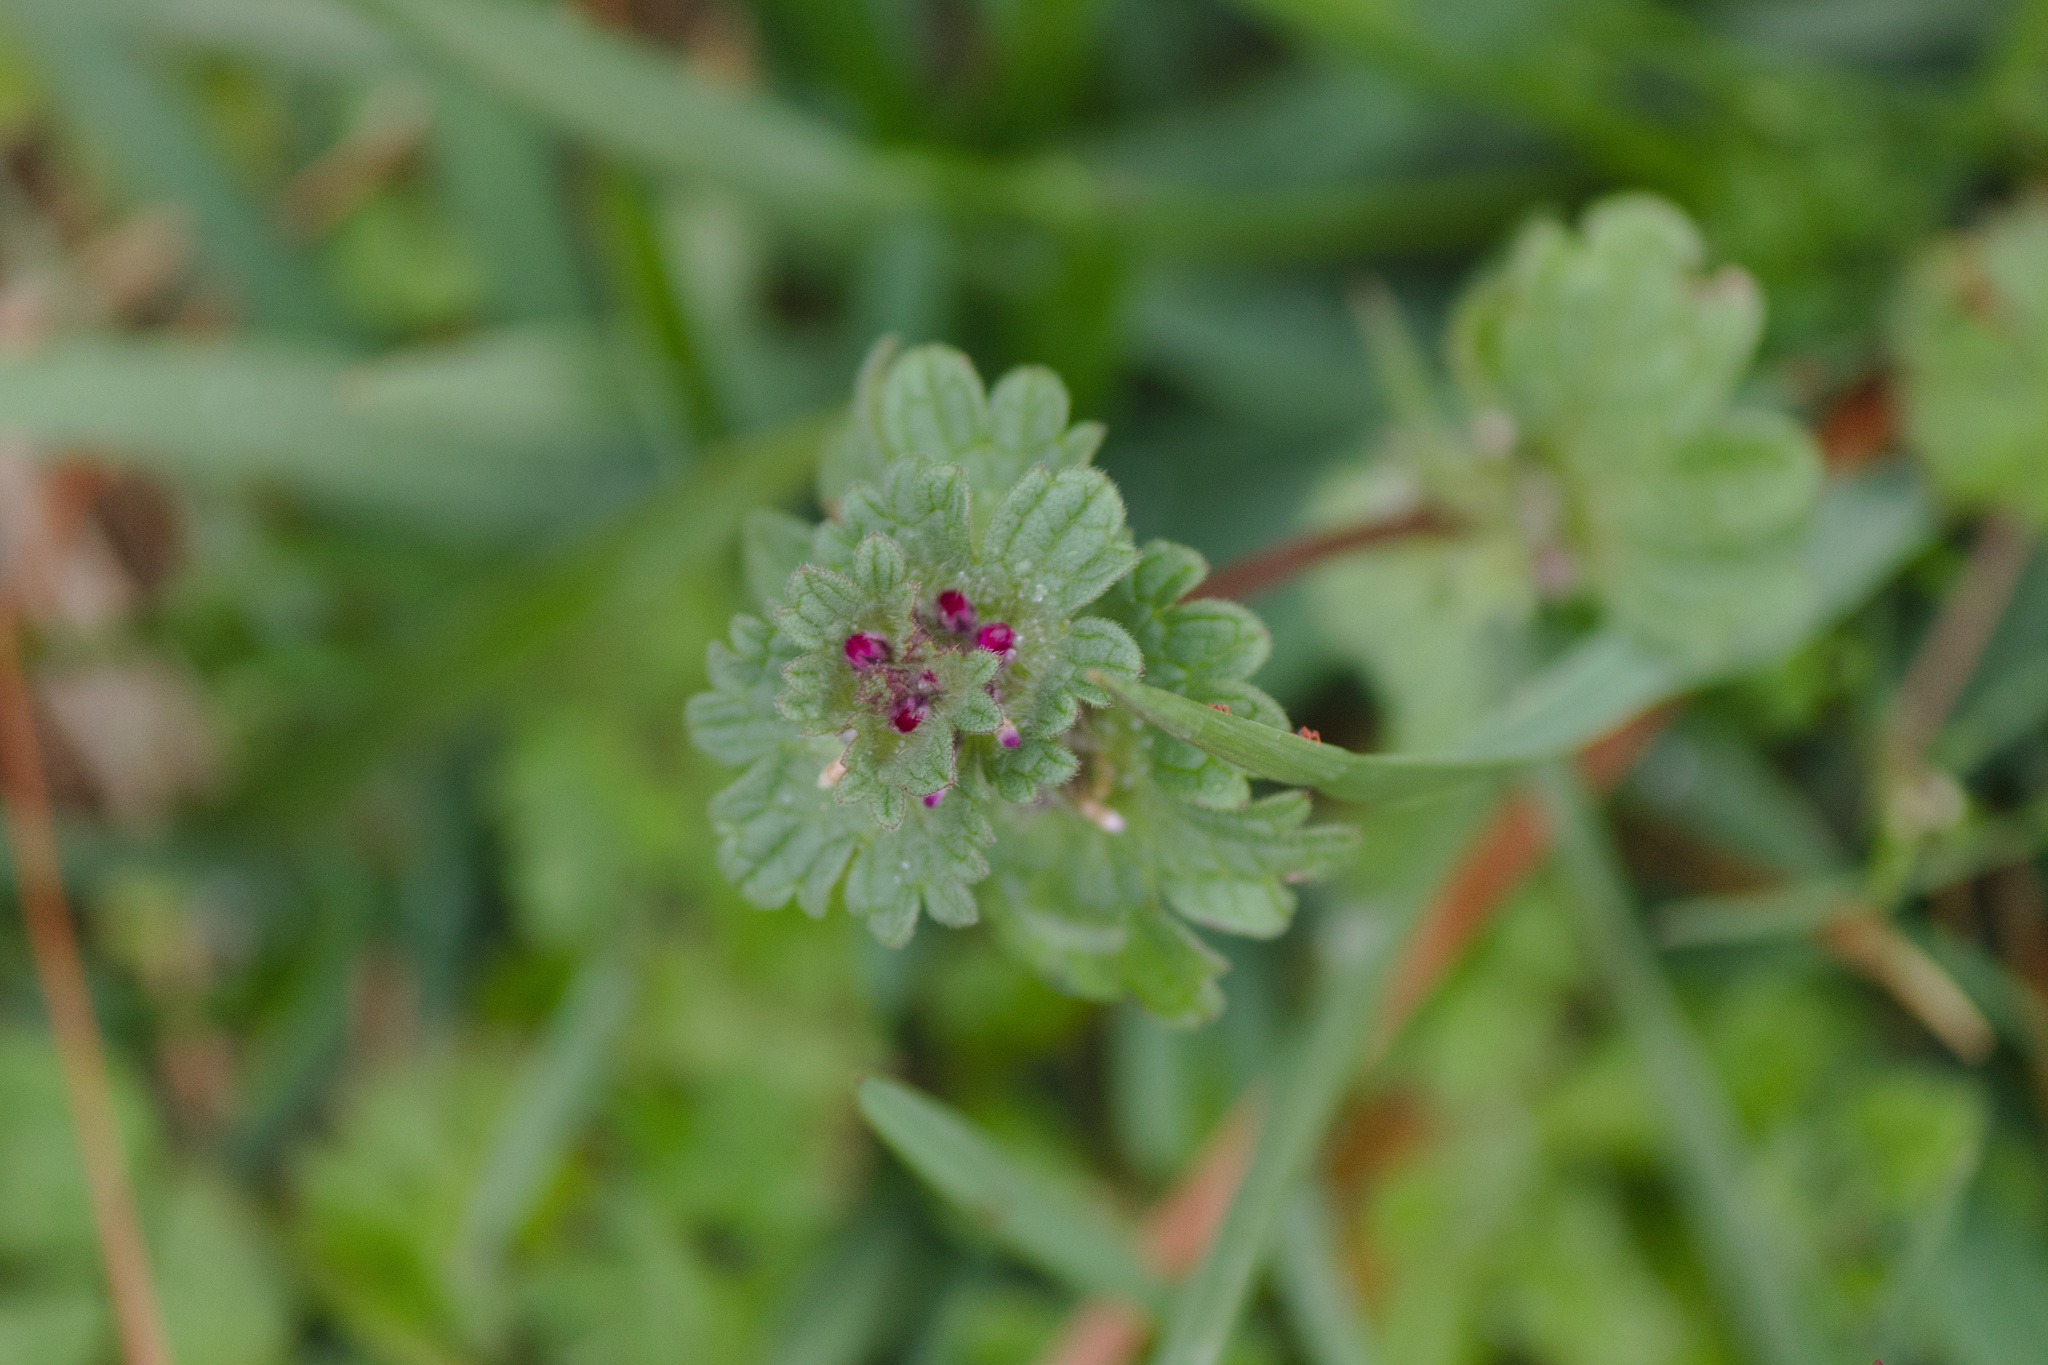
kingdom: Plantae
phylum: Tracheophyta
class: Magnoliopsida
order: Lamiales
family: Lamiaceae
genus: Lamium
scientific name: Lamium amplexicaule
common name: Henbit dead-nettle
